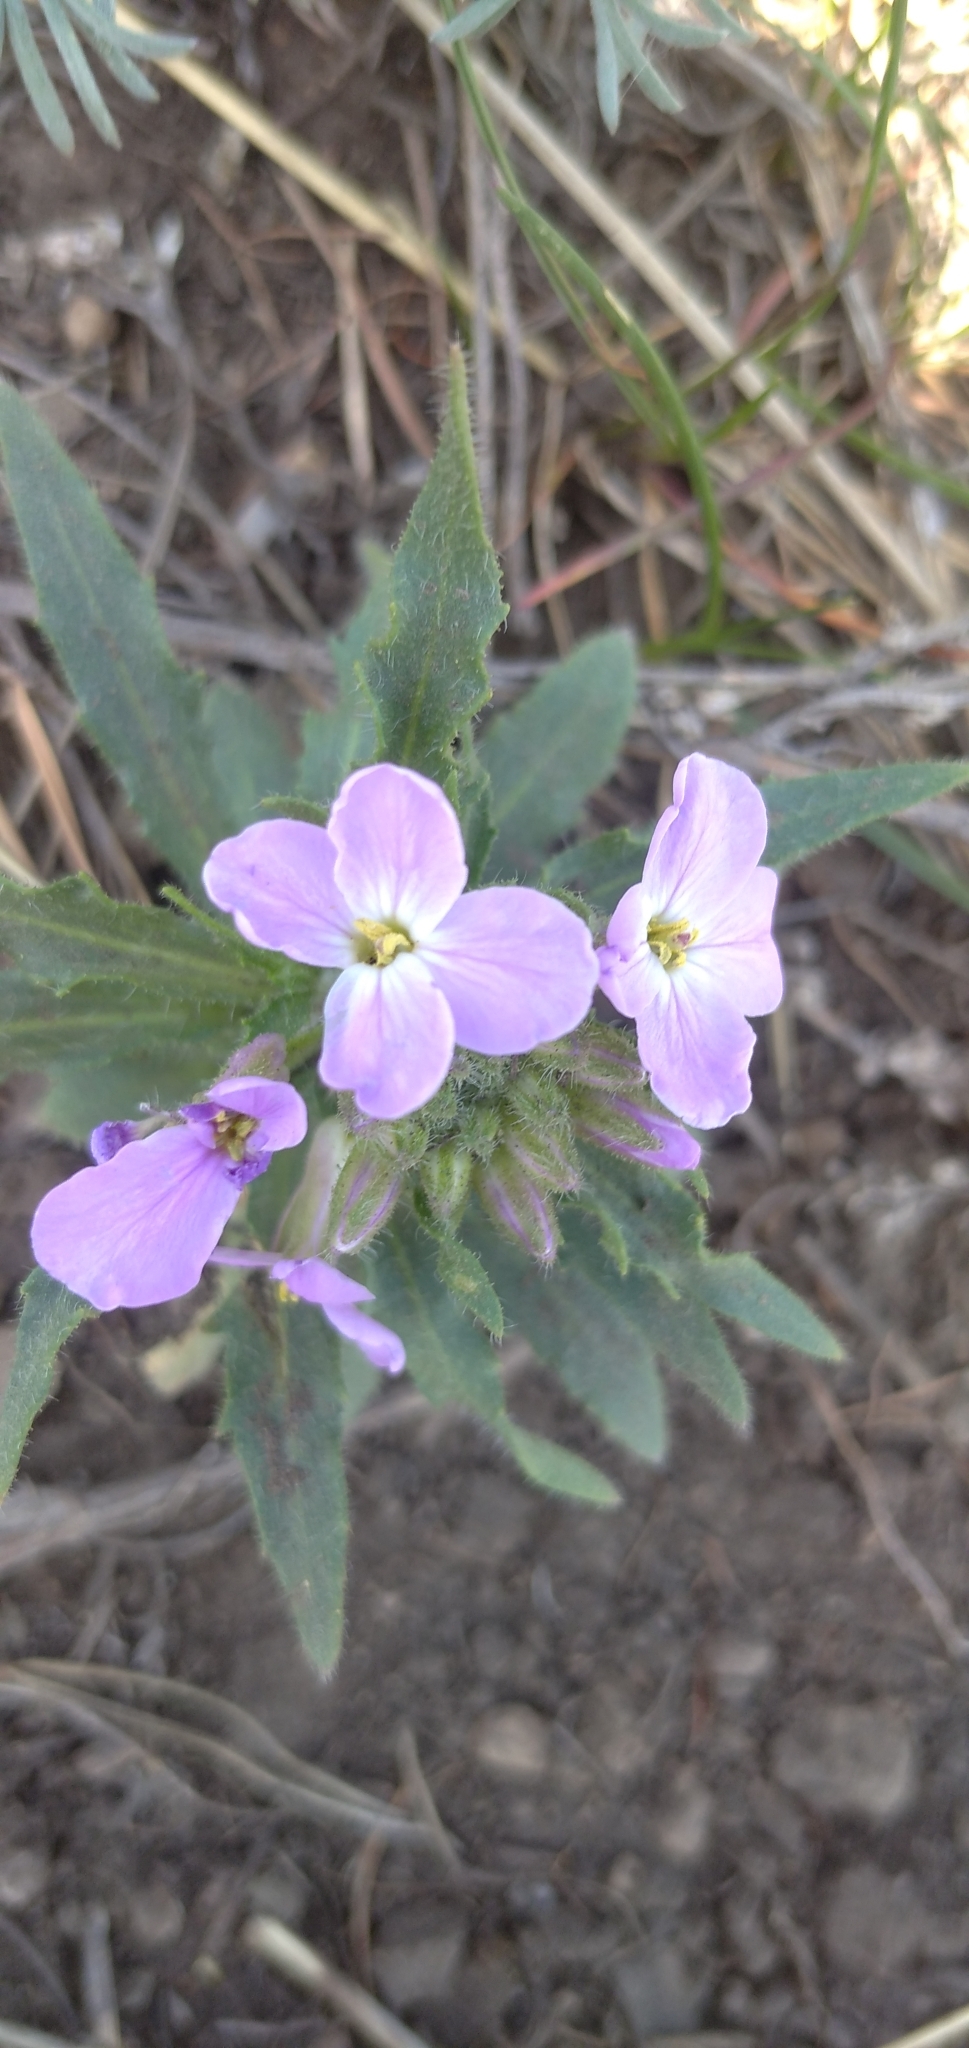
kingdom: Plantae
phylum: Tracheophyta
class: Magnoliopsida
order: Brassicales
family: Brassicaceae
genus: Clausia
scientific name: Clausia aprica
